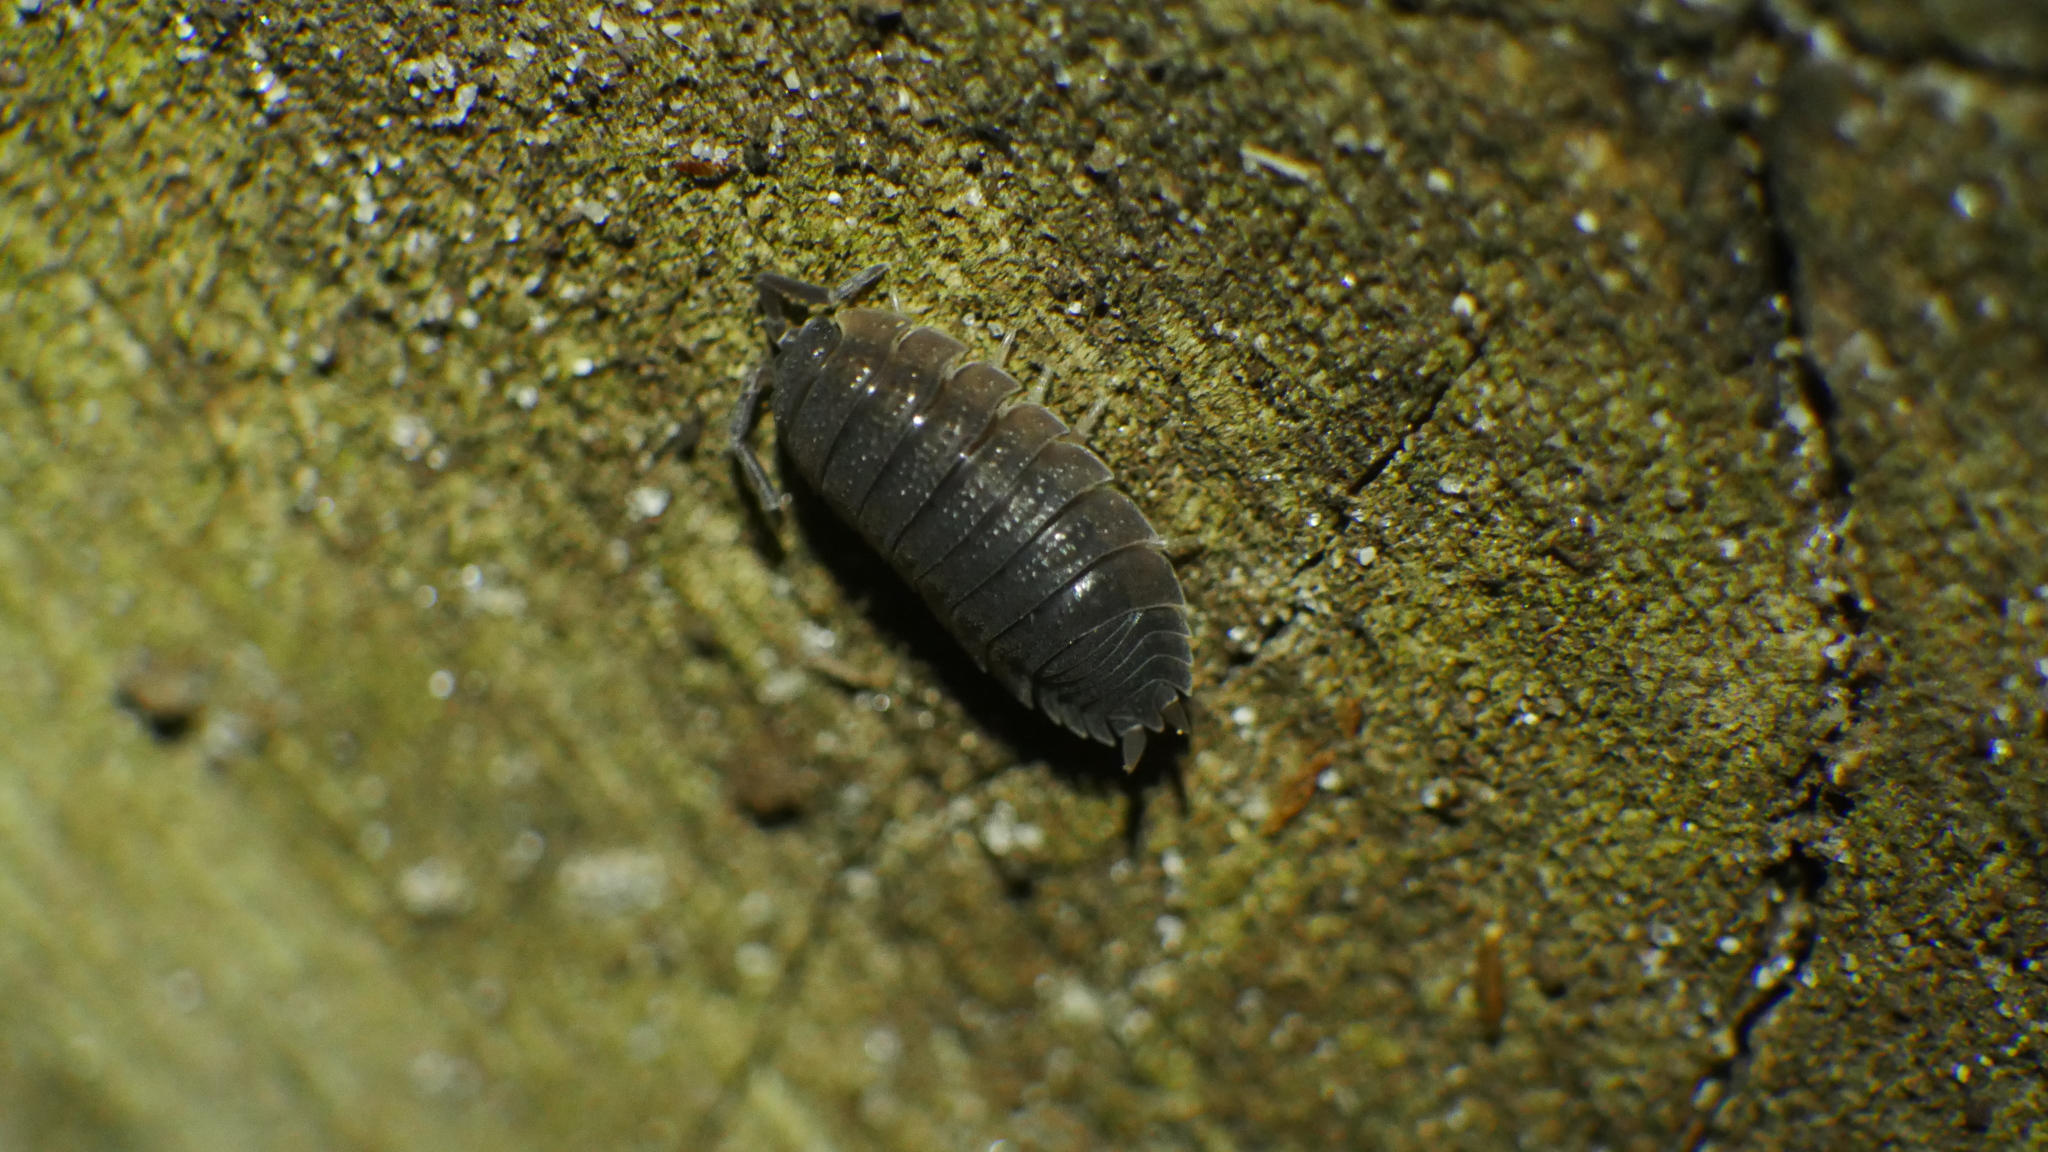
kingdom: Animalia
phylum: Arthropoda
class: Malacostraca
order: Isopoda
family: Porcellionidae
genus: Porcellio
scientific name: Porcellio scaber
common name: Common rough woodlouse
